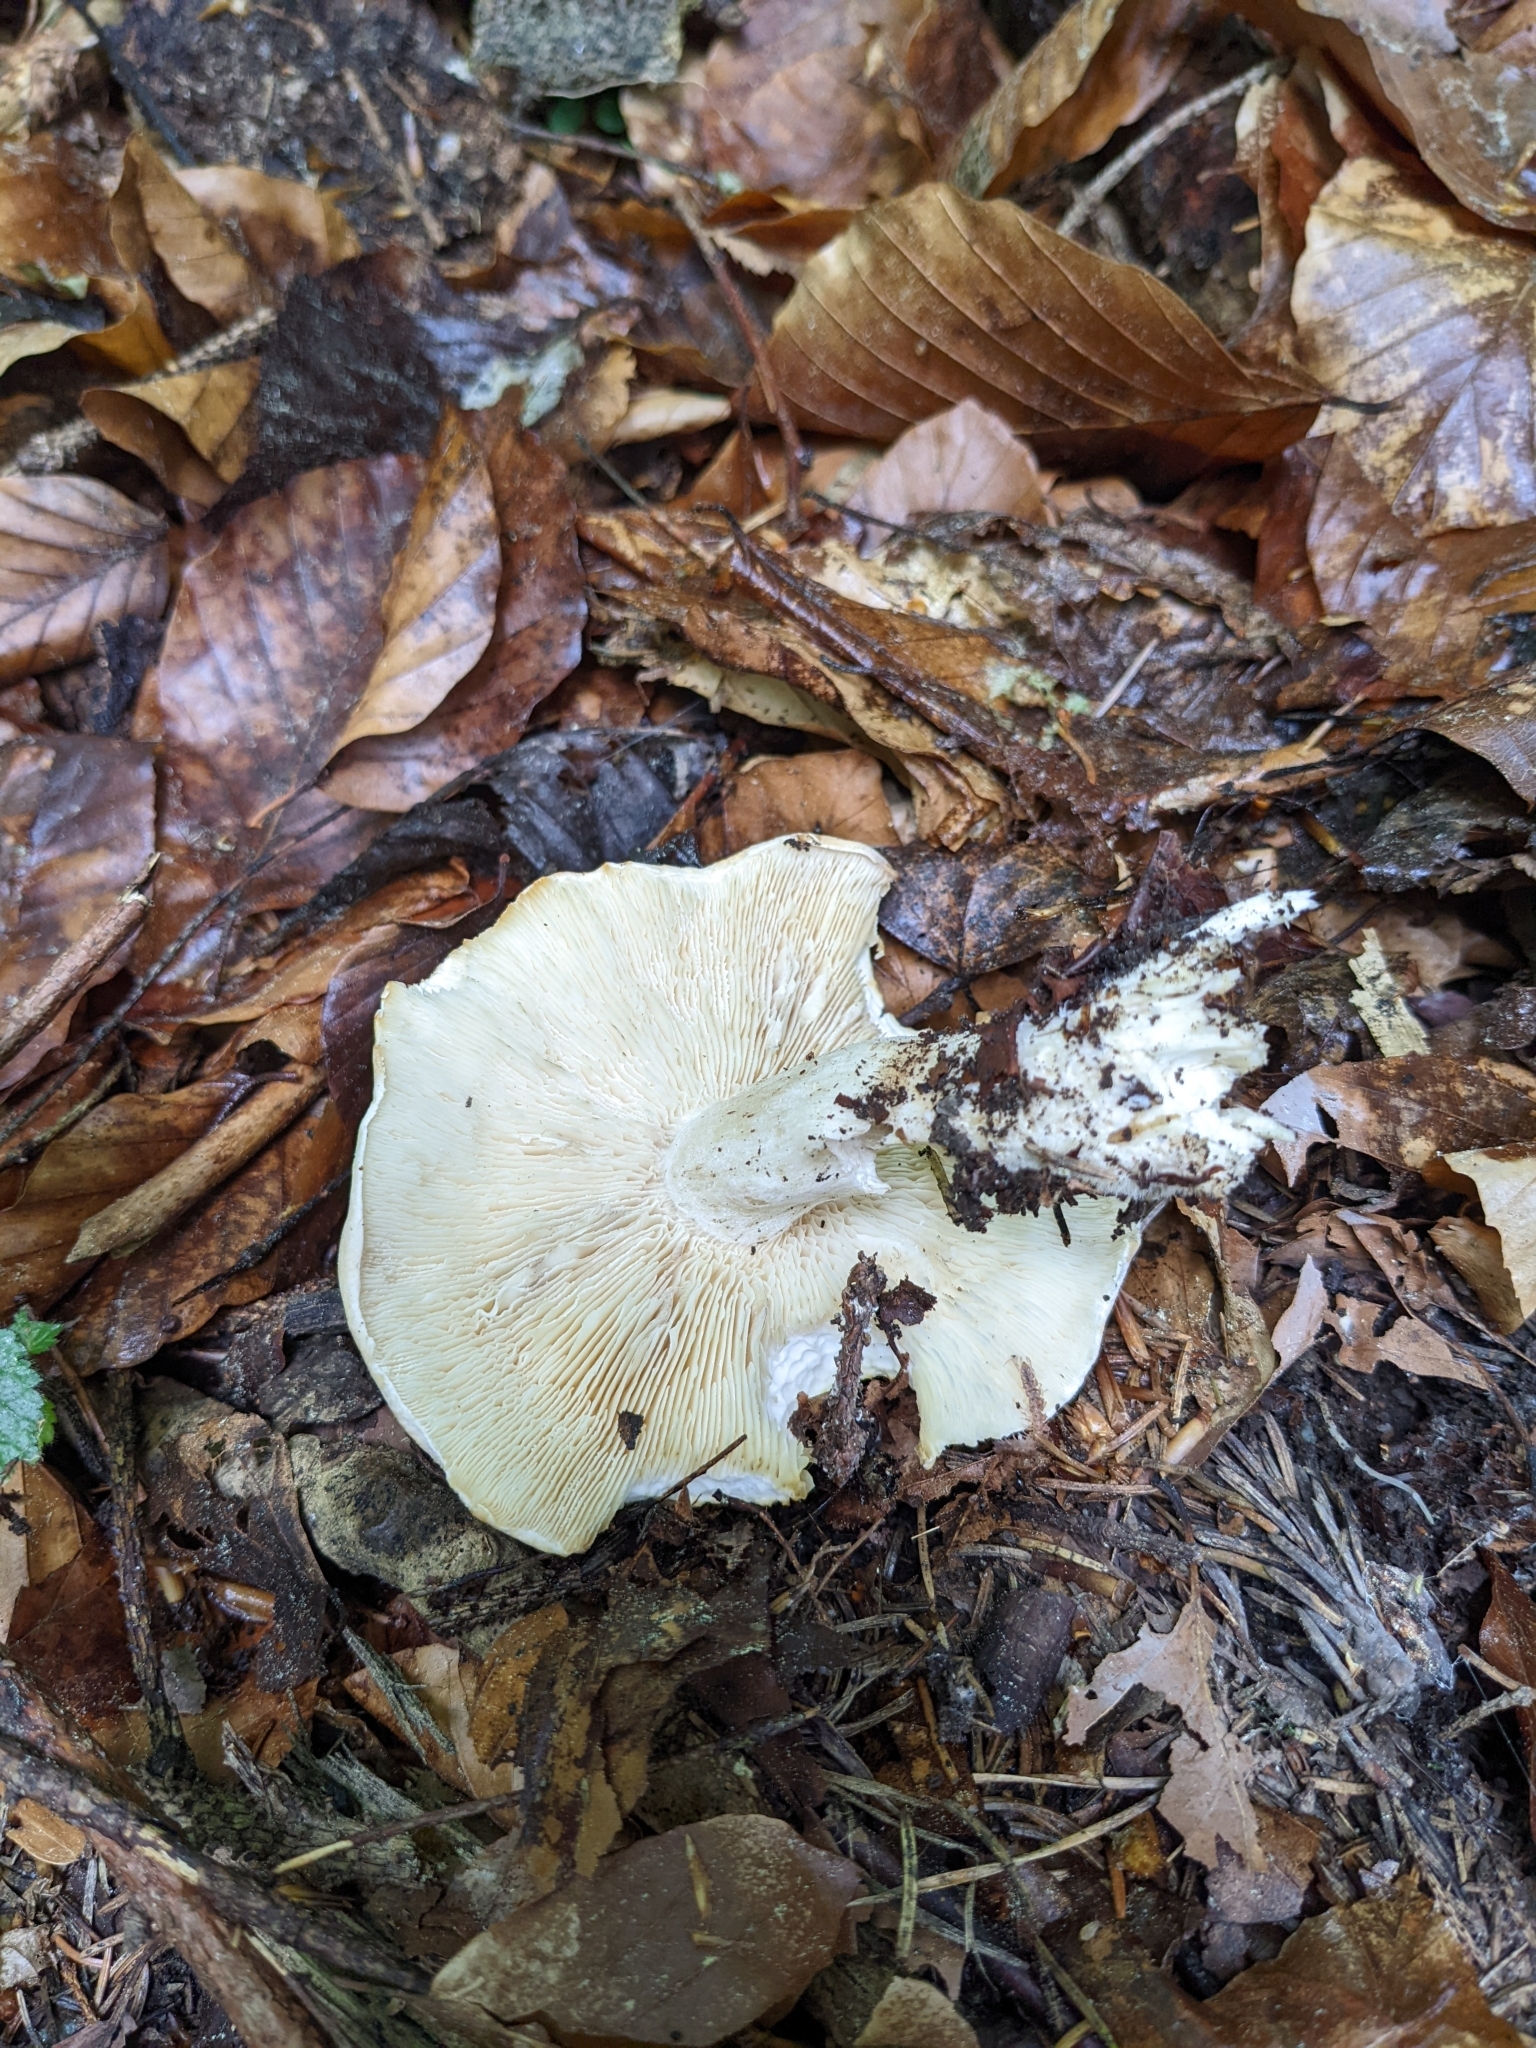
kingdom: Fungi
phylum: Basidiomycota
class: Agaricomycetes
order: Agaricales
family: Lyophyllaceae
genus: Calocybe
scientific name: Calocybe gambosa
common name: St. george's mushroom
